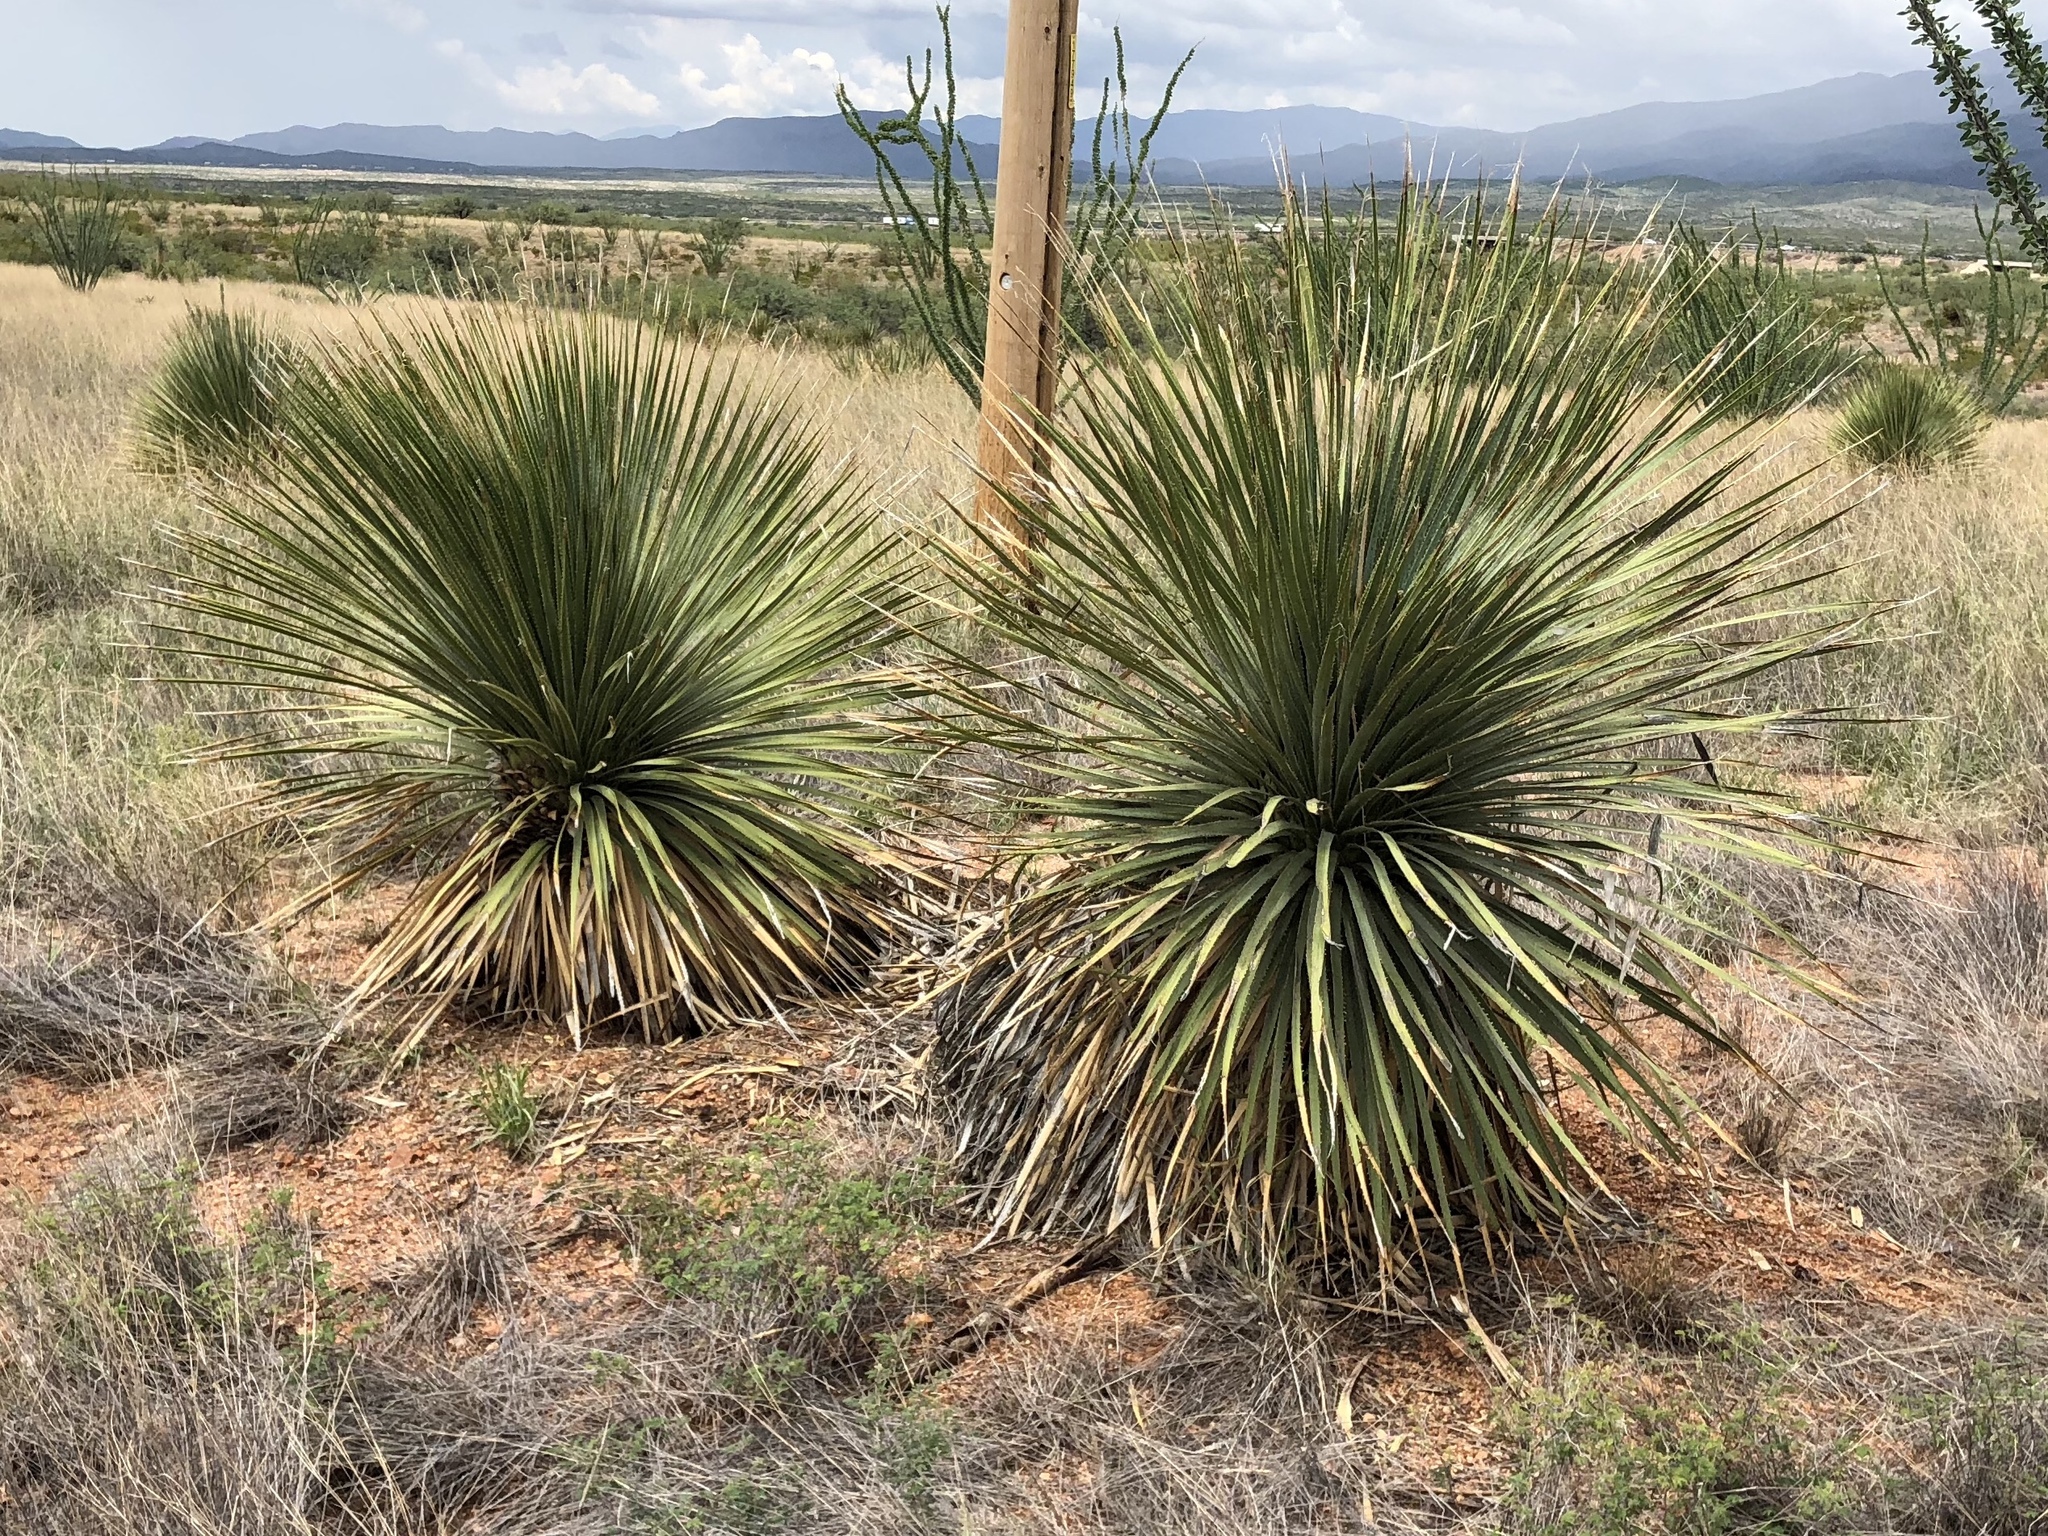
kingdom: Plantae
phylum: Tracheophyta
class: Liliopsida
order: Asparagales
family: Asparagaceae
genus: Dasylirion
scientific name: Dasylirion wheeleri
